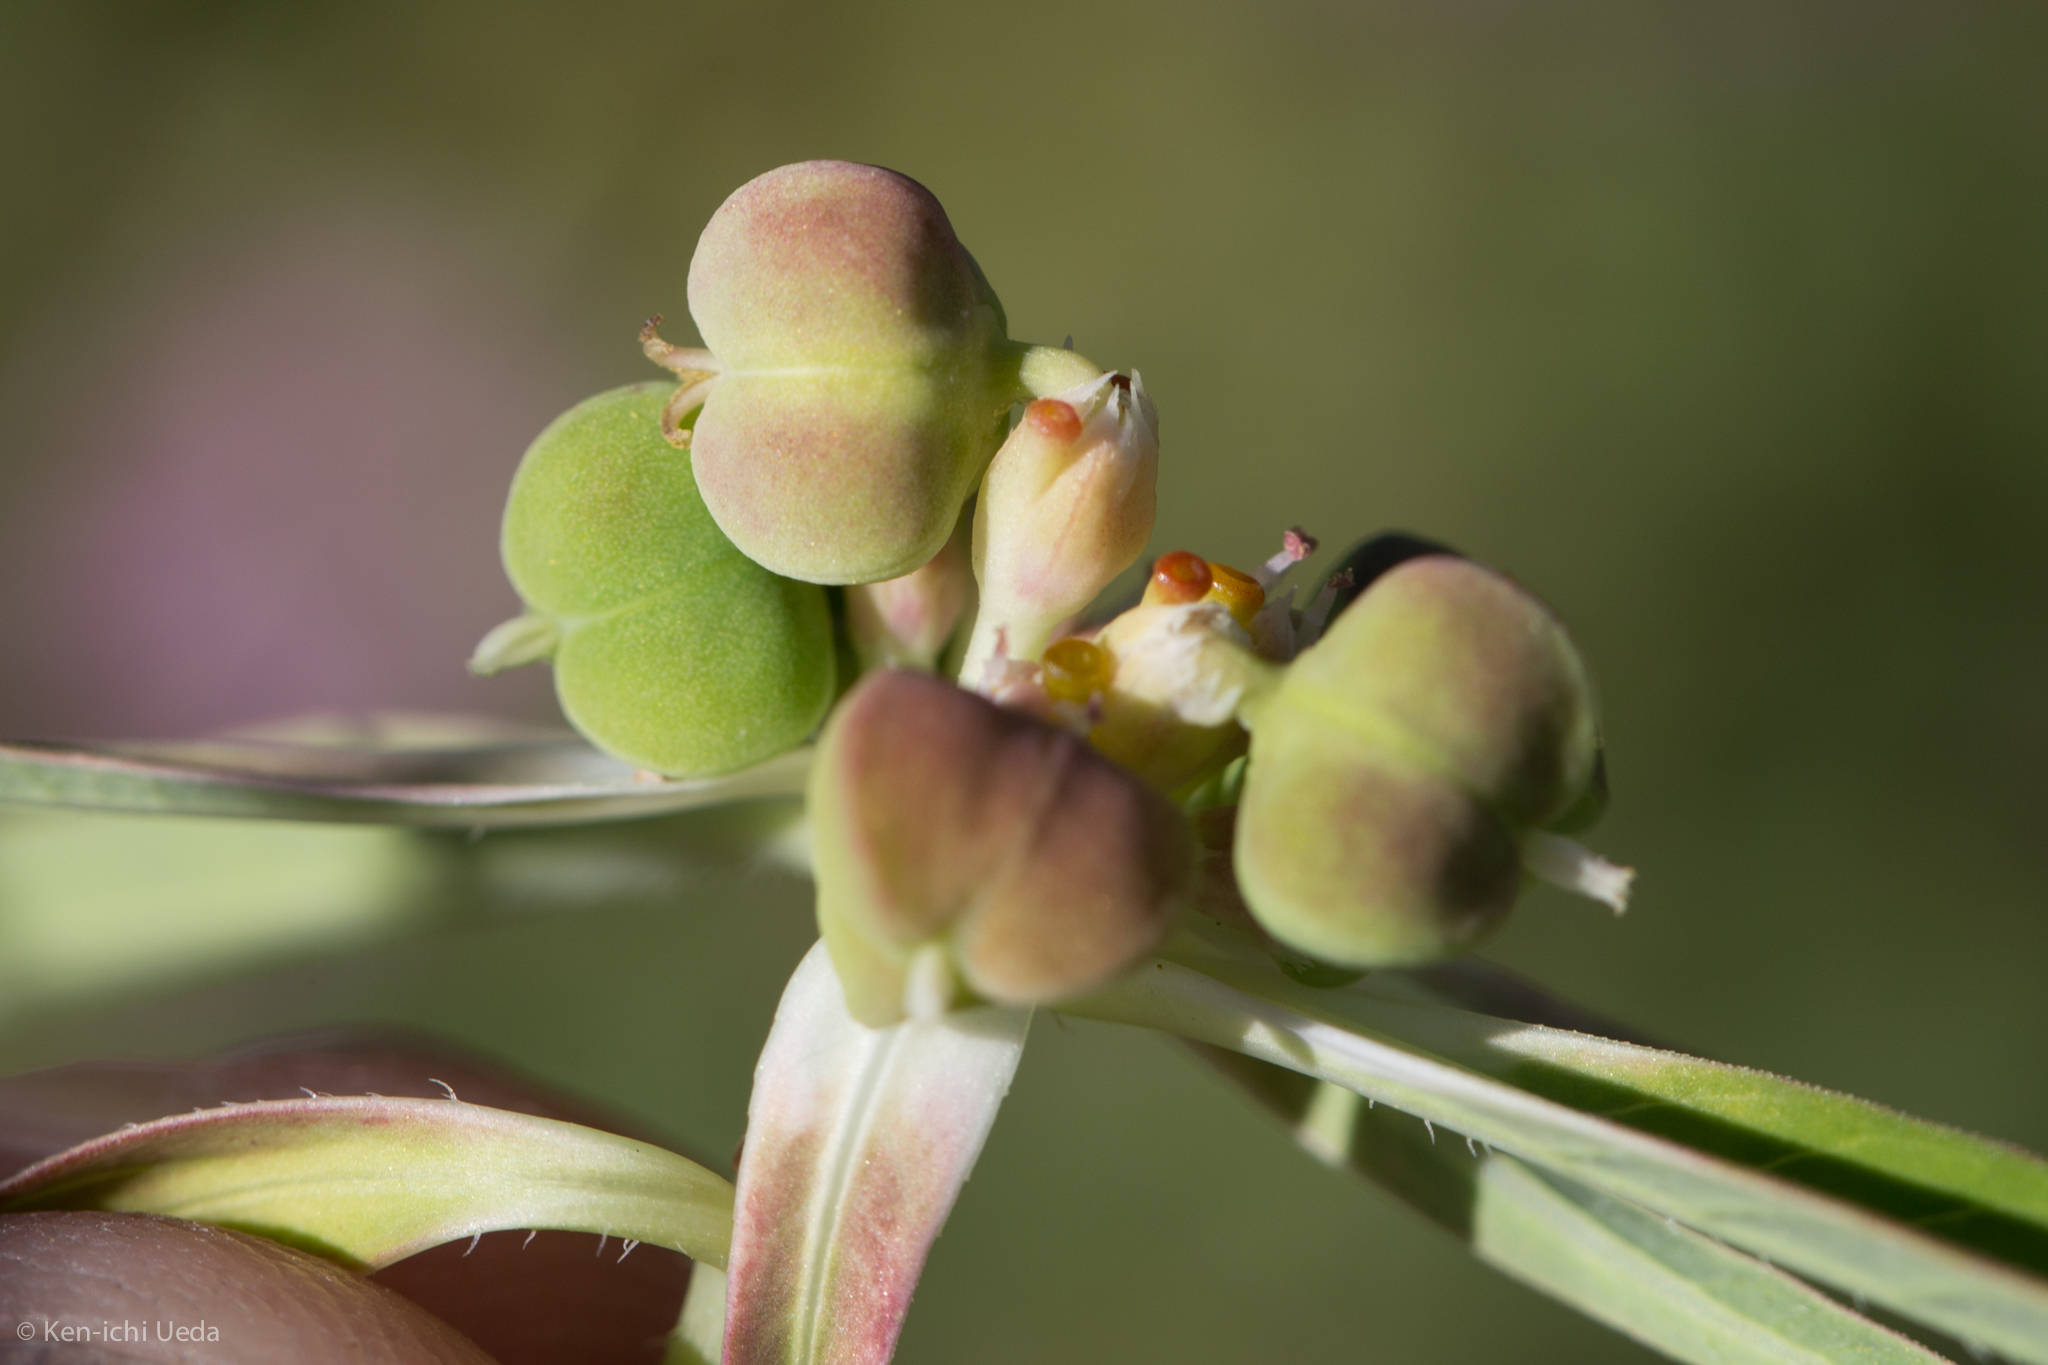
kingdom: Plantae
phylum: Tracheophyta
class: Magnoliopsida
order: Malpighiales
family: Euphorbiaceae
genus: Euphorbia
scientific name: Euphorbia heterophylla
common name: Mexican fireplant
